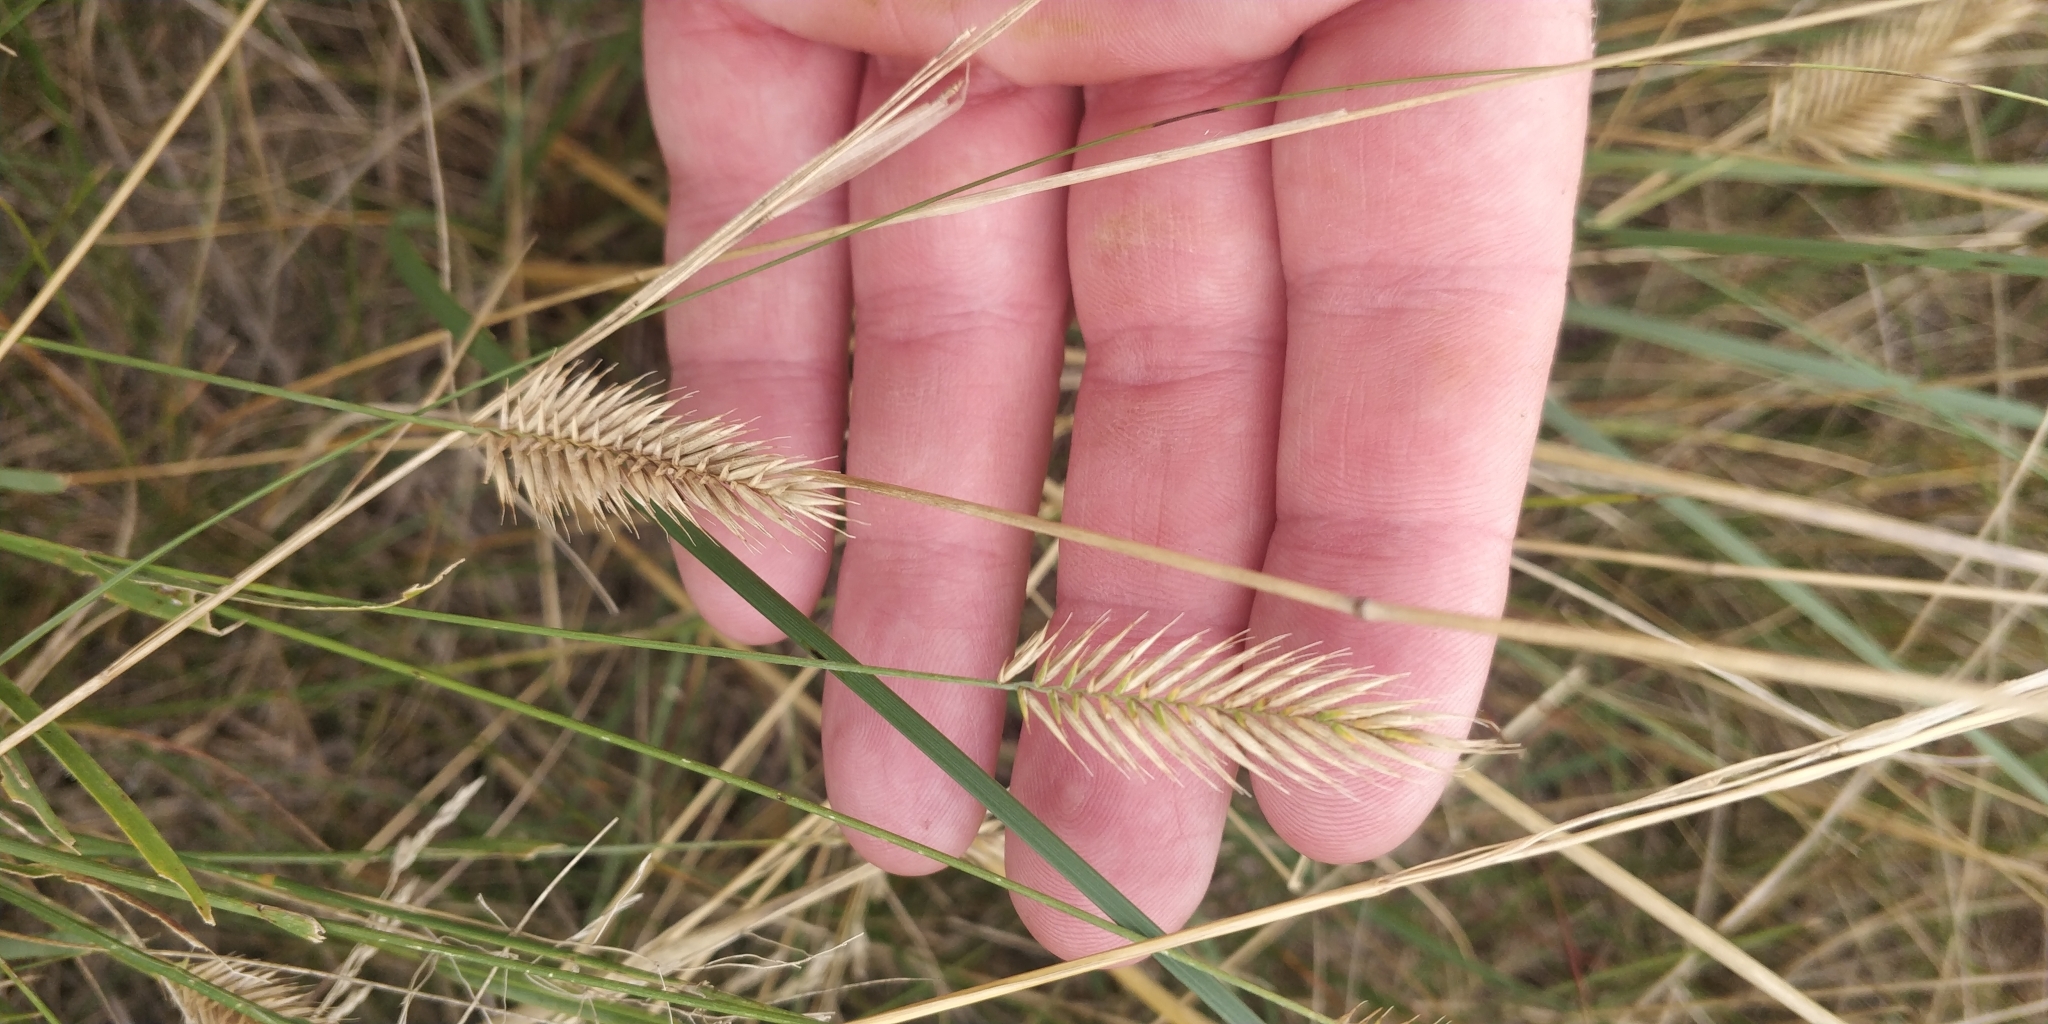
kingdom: Plantae
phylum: Tracheophyta
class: Liliopsida
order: Poales
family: Poaceae
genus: Agropyron
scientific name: Agropyron cristatum
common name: Crested wheatgrass
